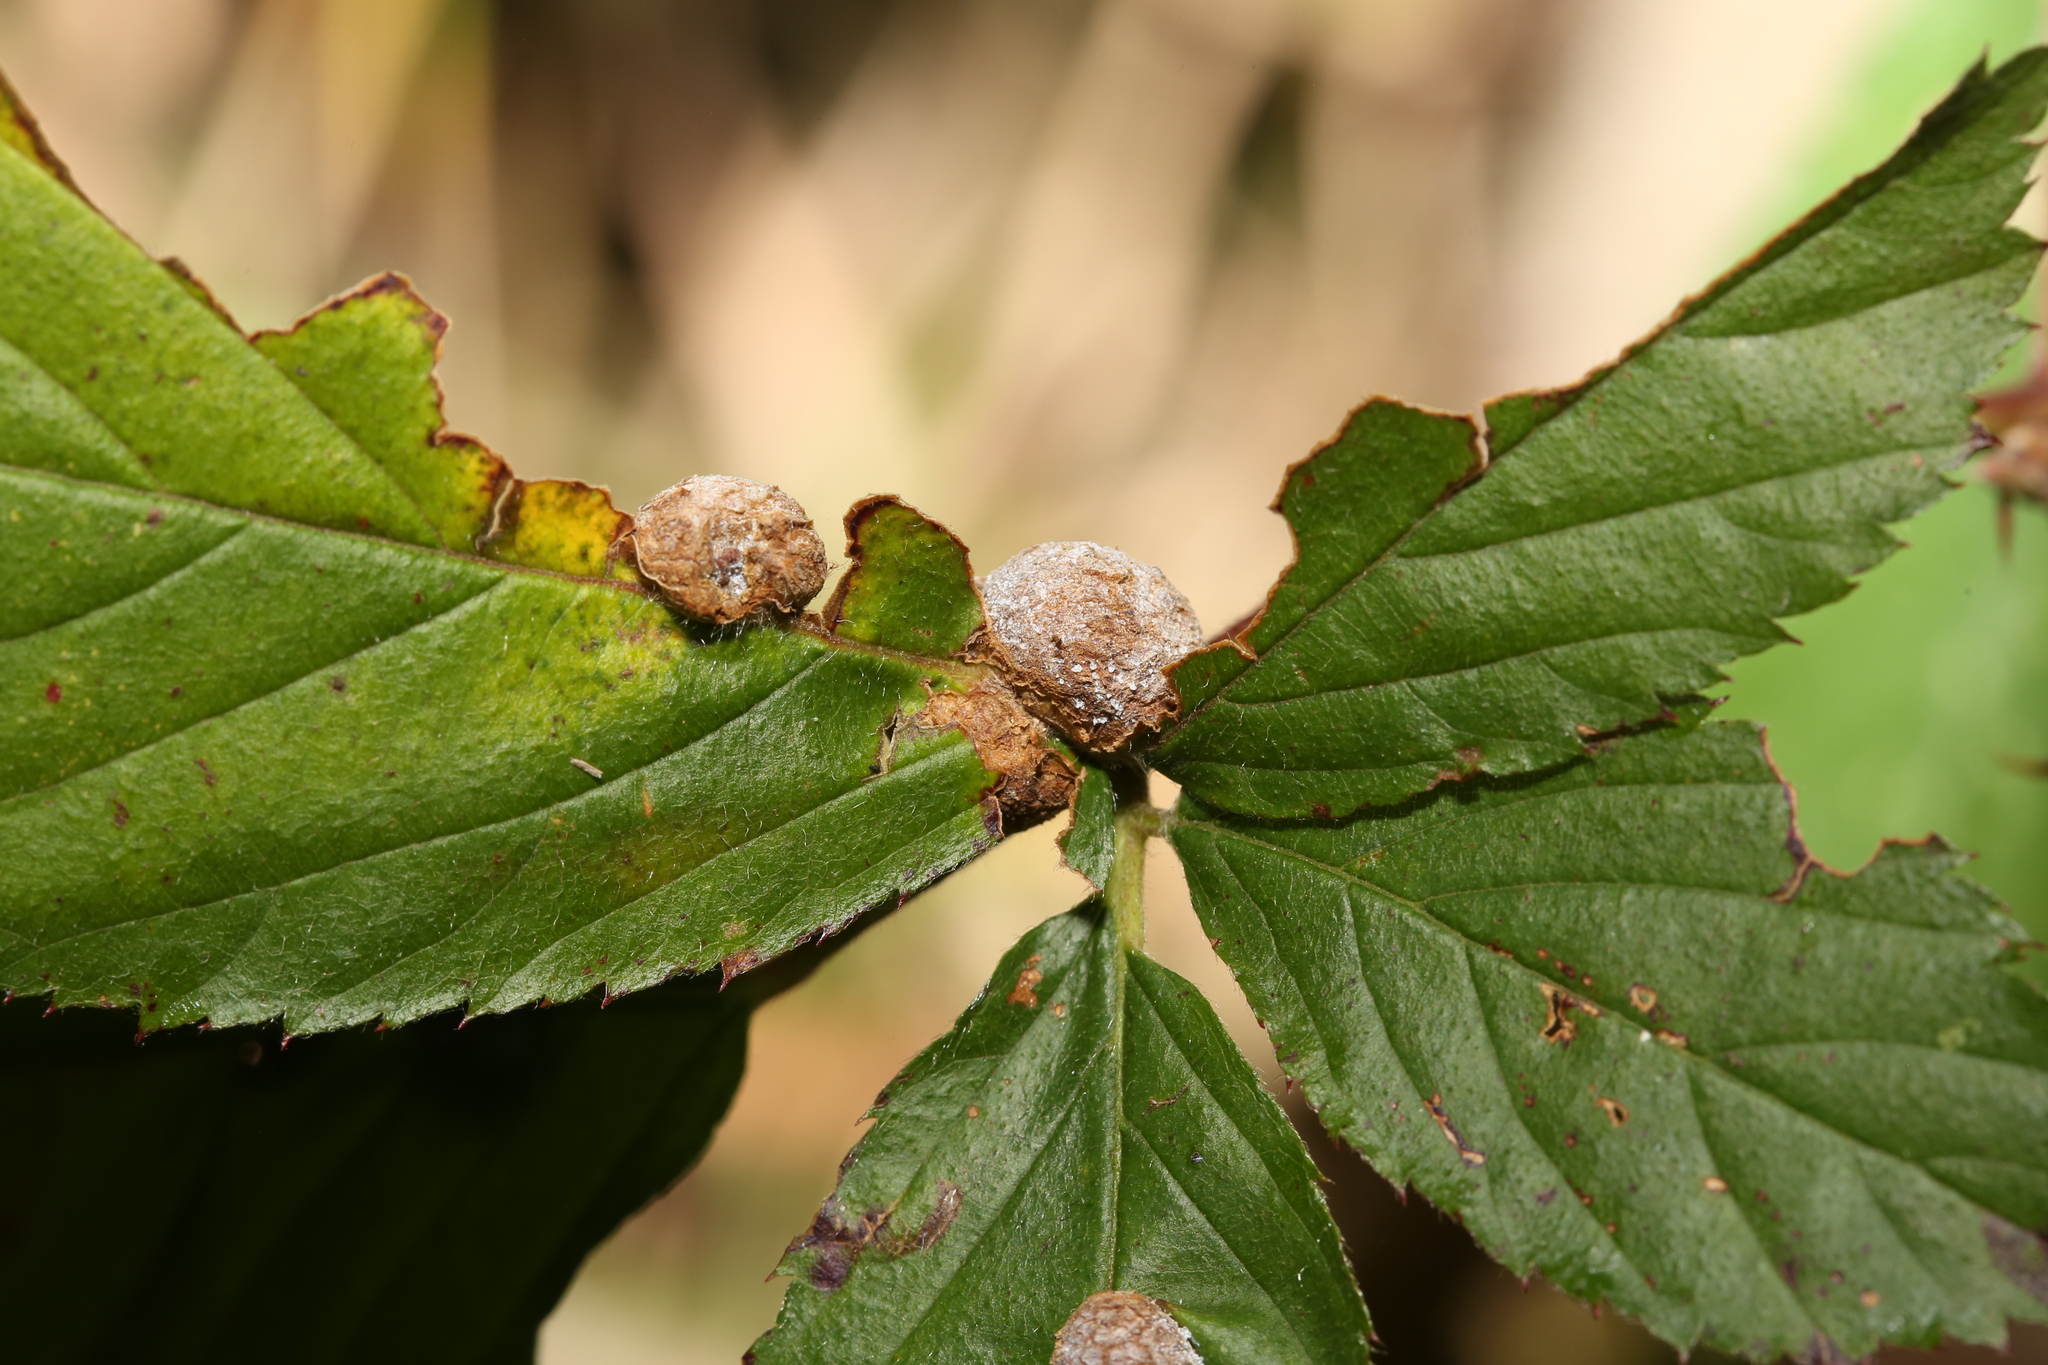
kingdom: Animalia
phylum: Arthropoda
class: Insecta
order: Diptera
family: Cecidomyiidae
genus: Neolasioptera
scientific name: Neolasioptera farinosa
